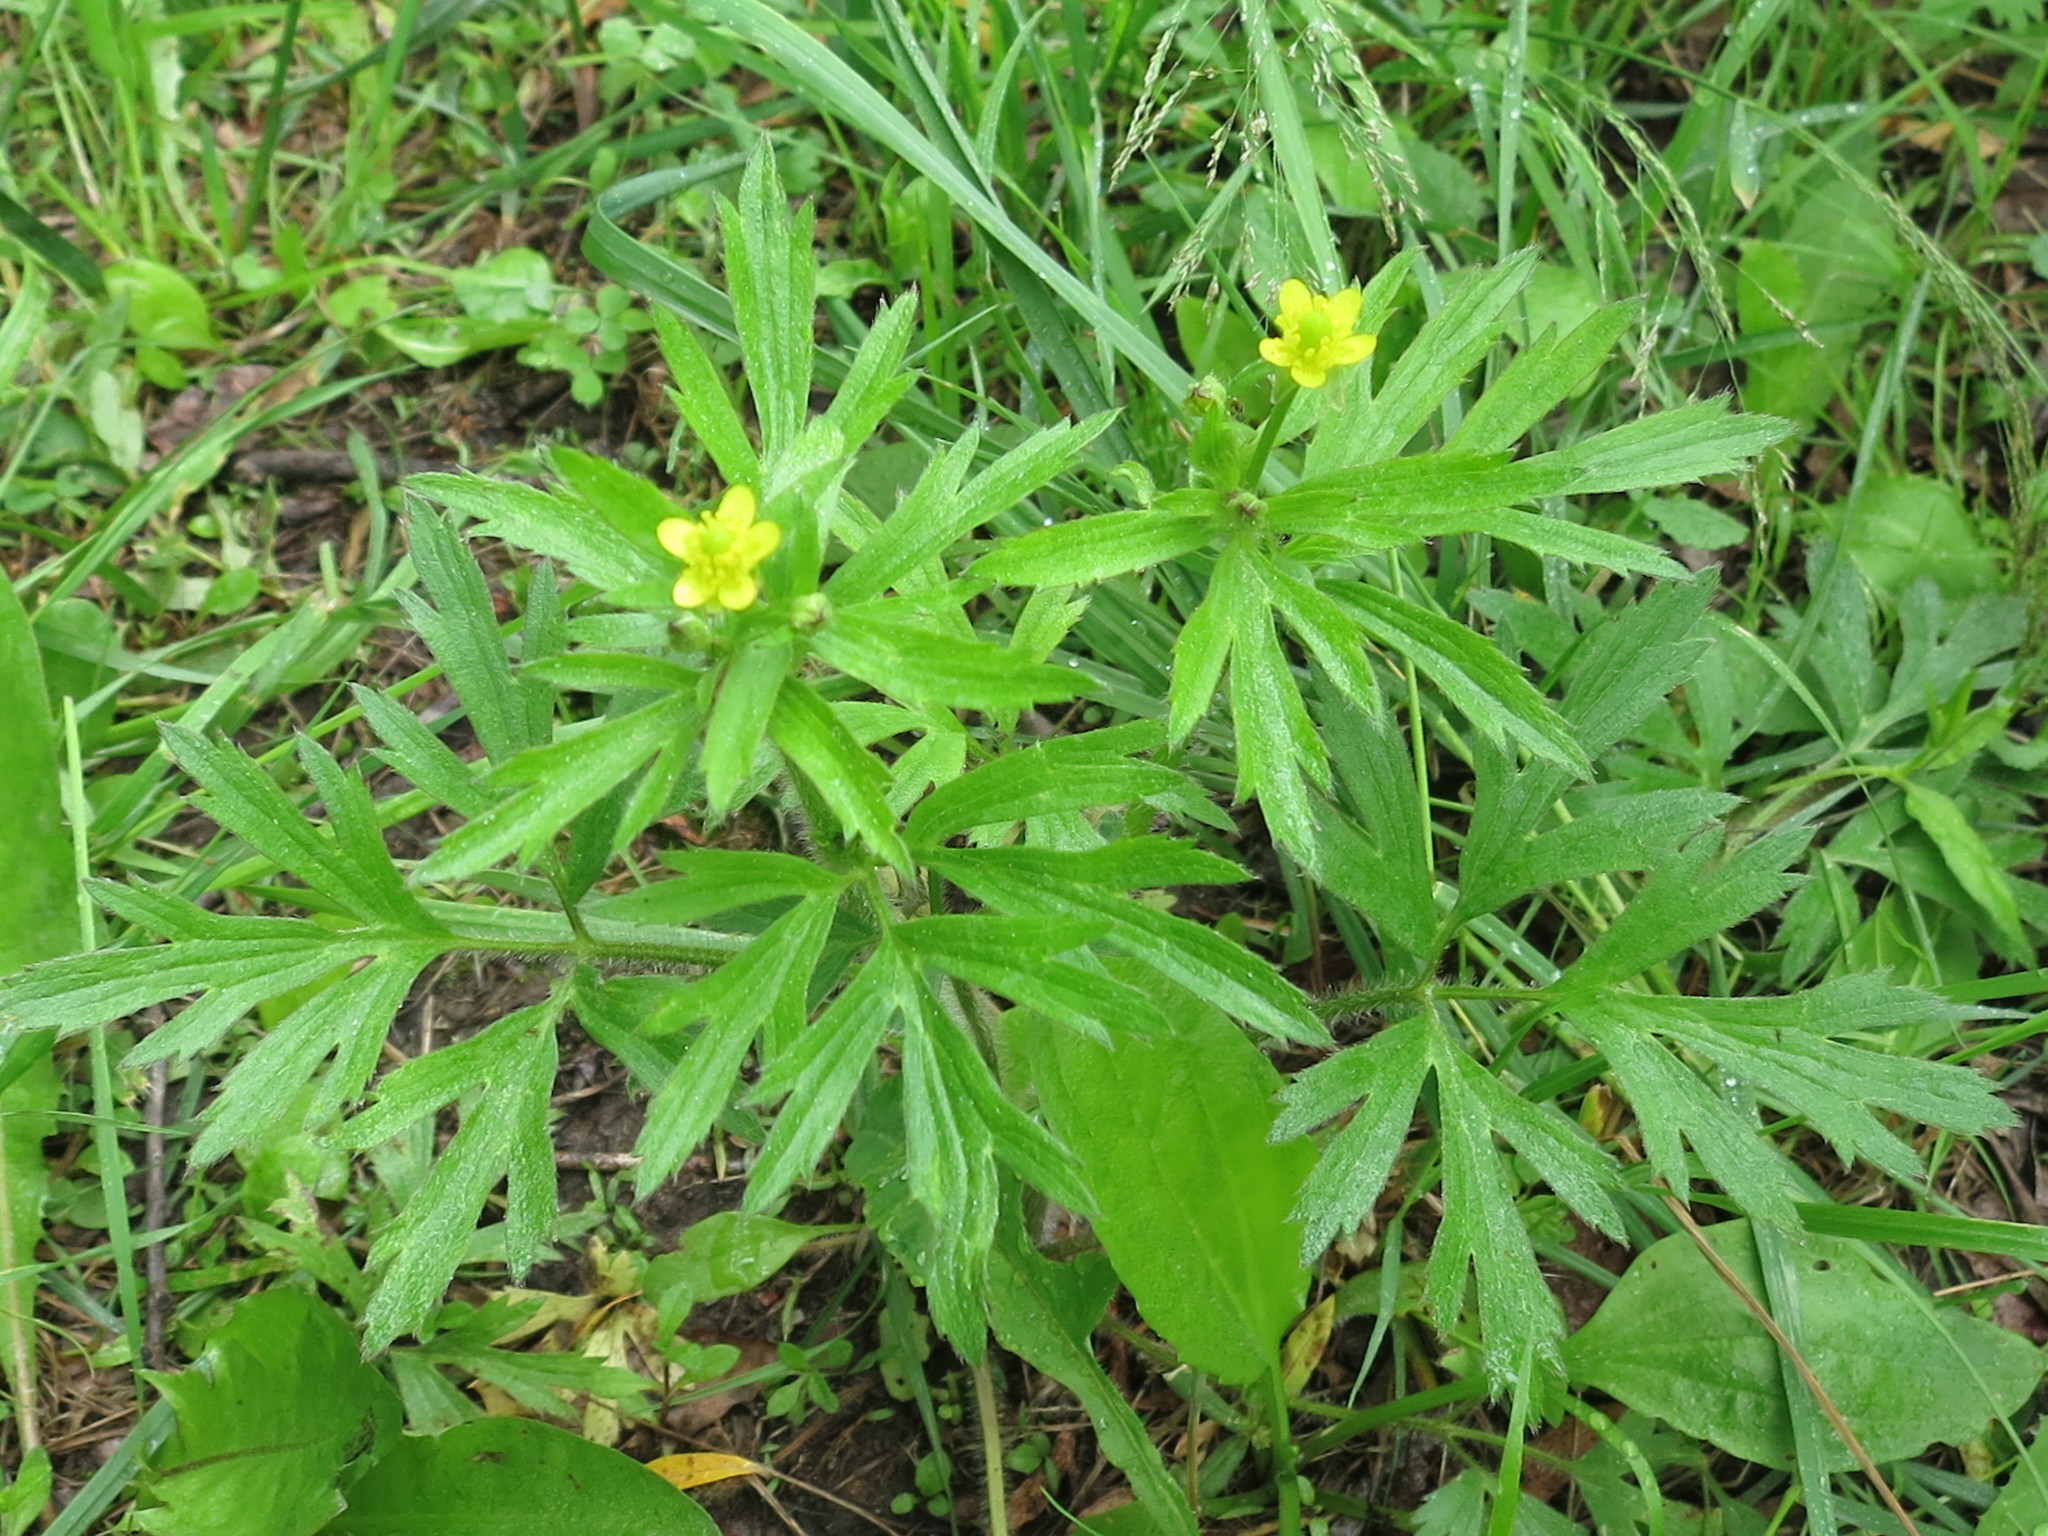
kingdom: Plantae
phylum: Tracheophyta
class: Magnoliopsida
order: Ranunculales
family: Ranunculaceae
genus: Ranunculus
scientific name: Ranunculus chinensis
